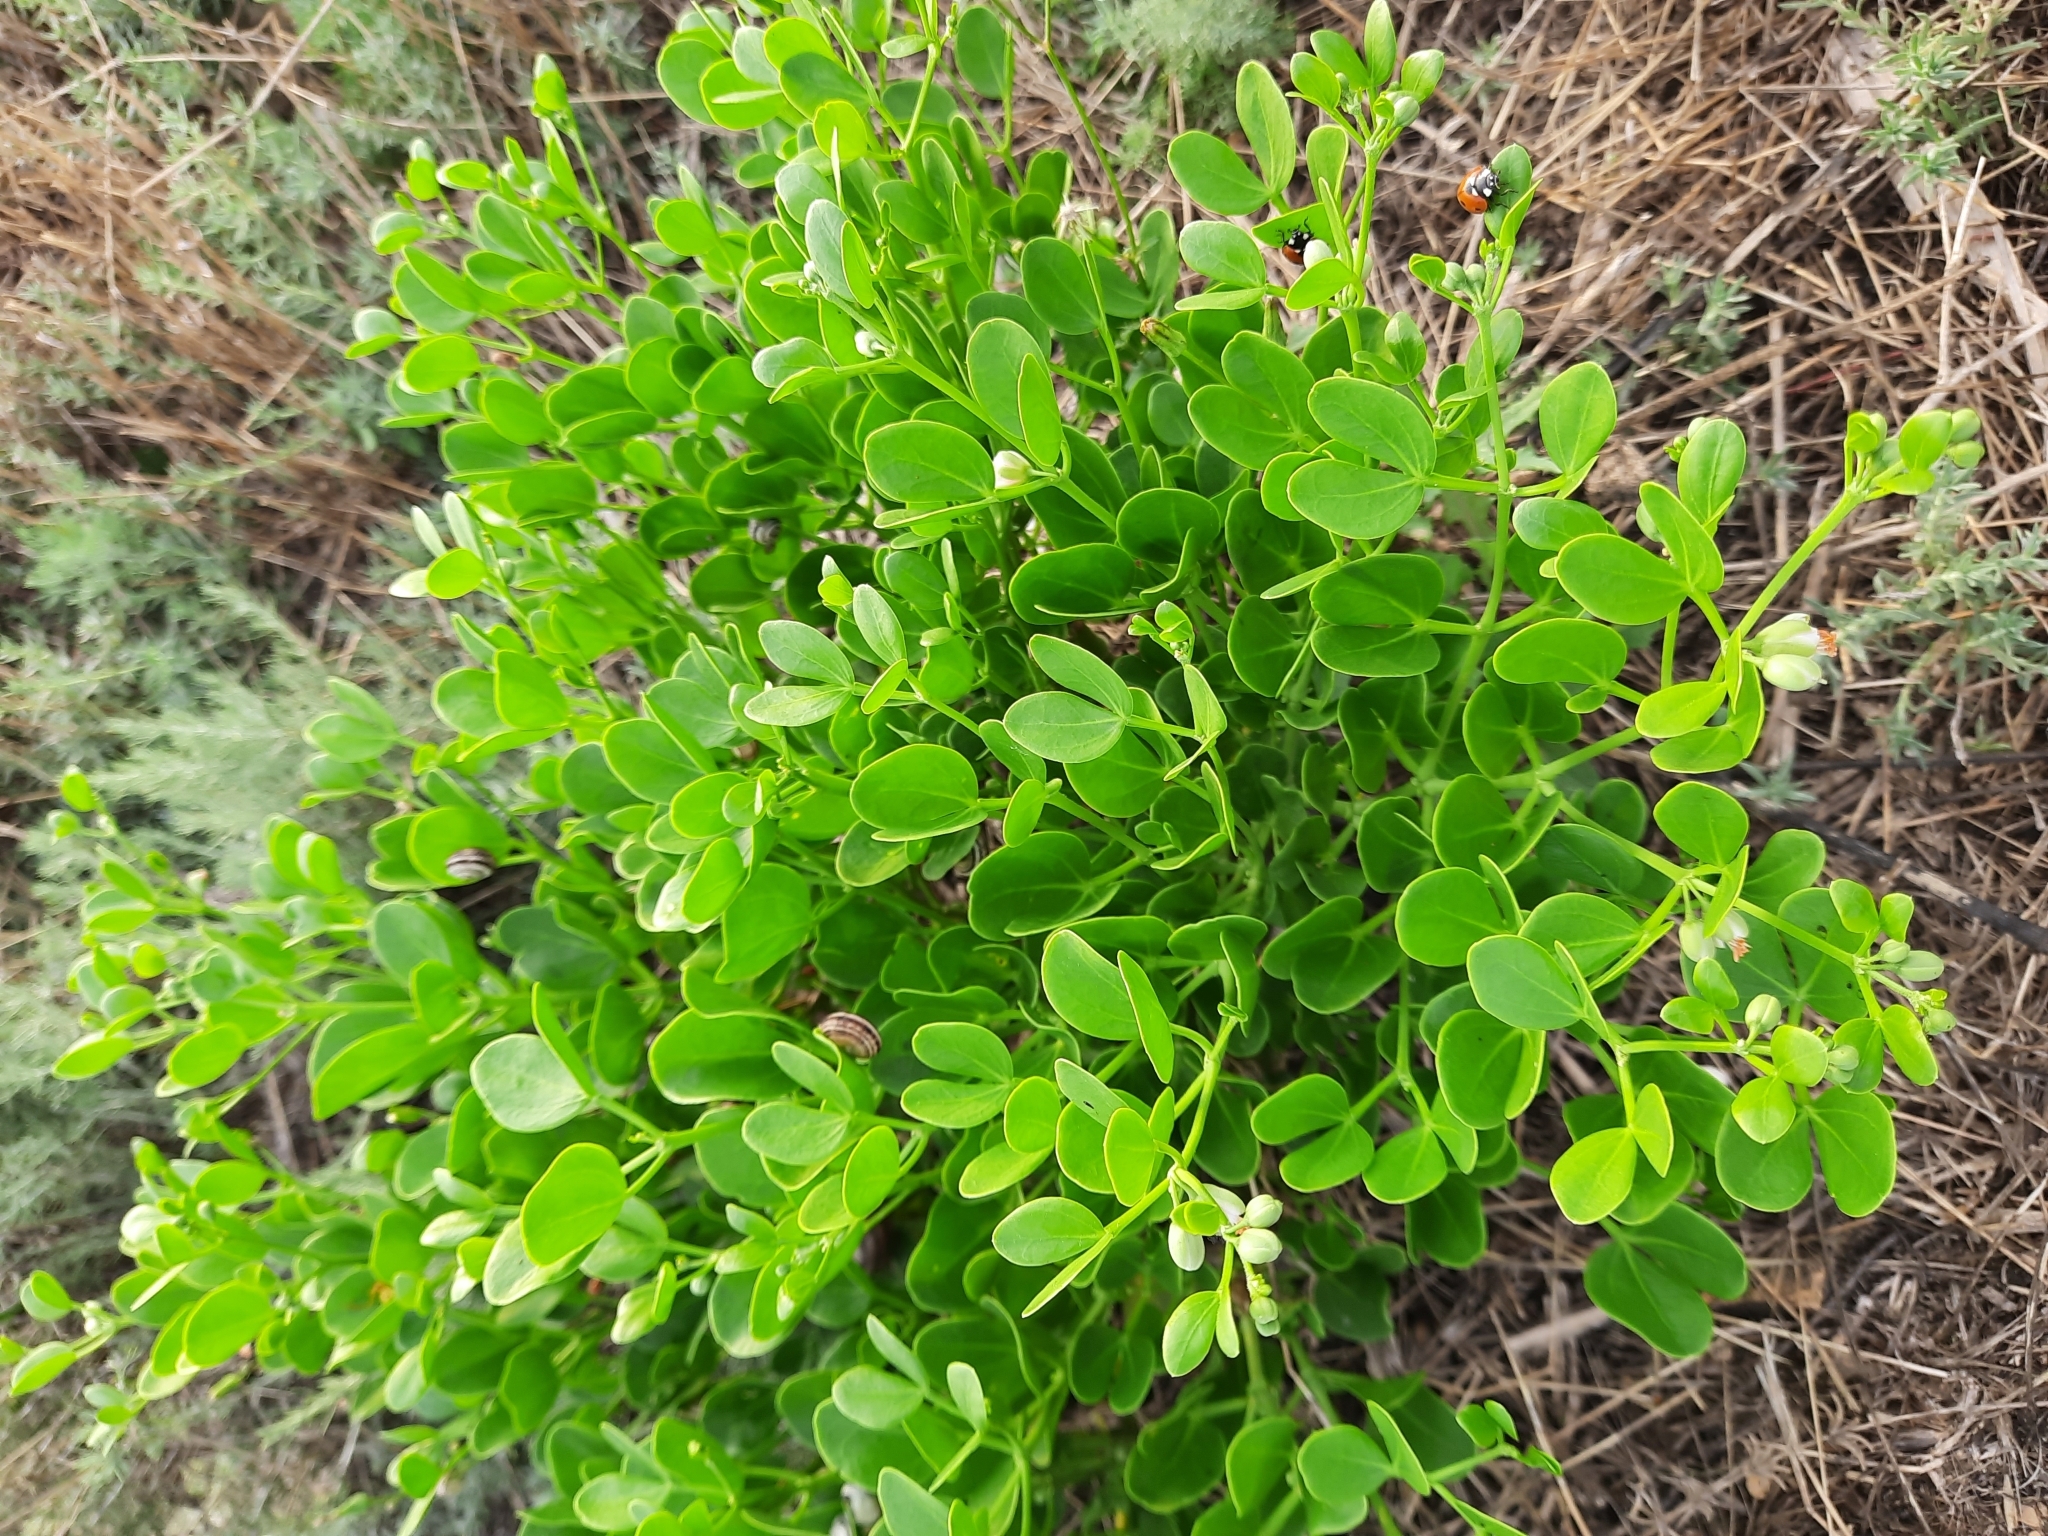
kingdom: Plantae
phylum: Tracheophyta
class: Magnoliopsida
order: Zygophyllales
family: Zygophyllaceae
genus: Zygophyllum
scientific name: Zygophyllum fabago
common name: Syrian beancaper
